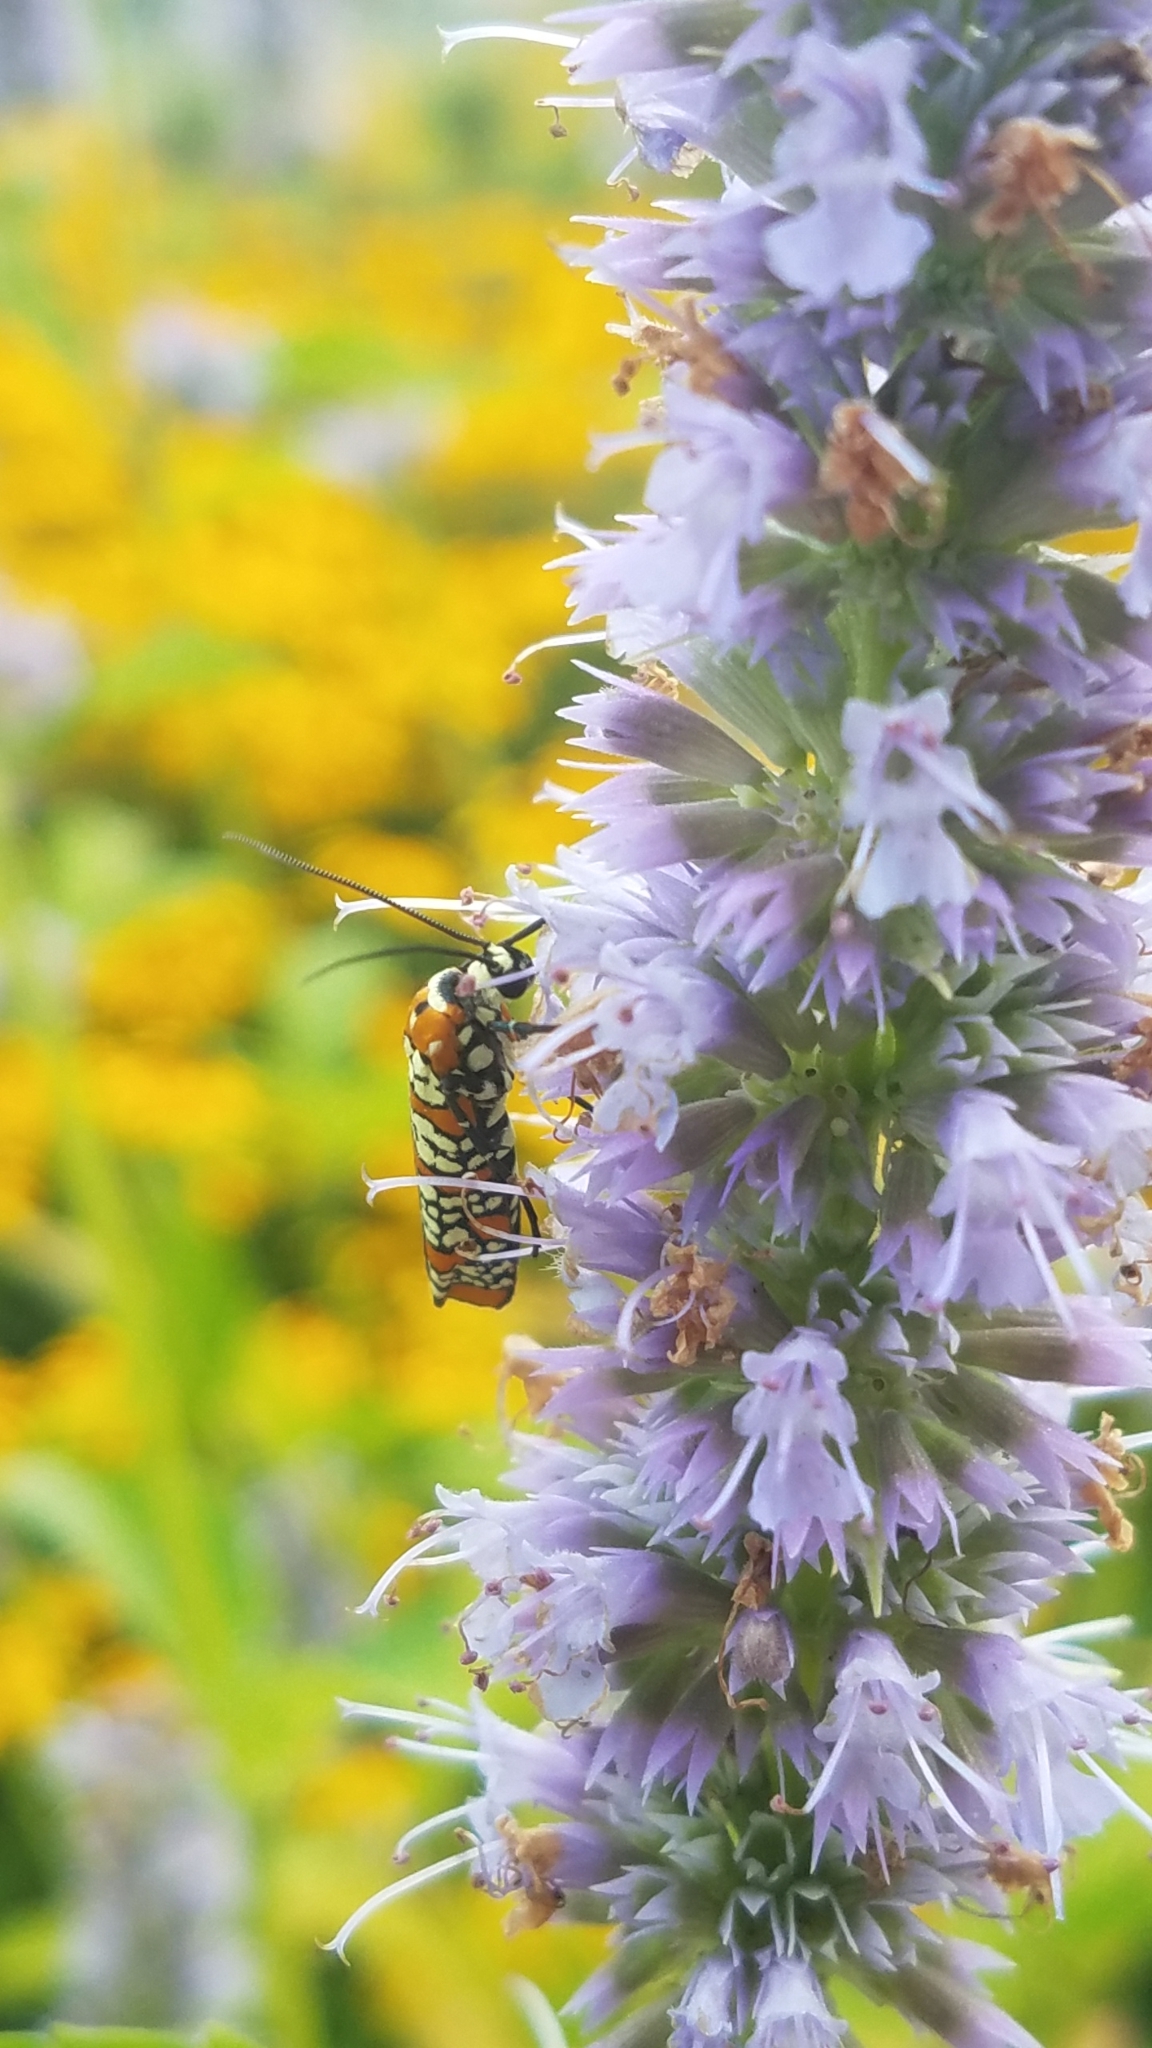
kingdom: Animalia
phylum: Arthropoda
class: Insecta
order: Lepidoptera
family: Attevidae
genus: Atteva
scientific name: Atteva punctella
